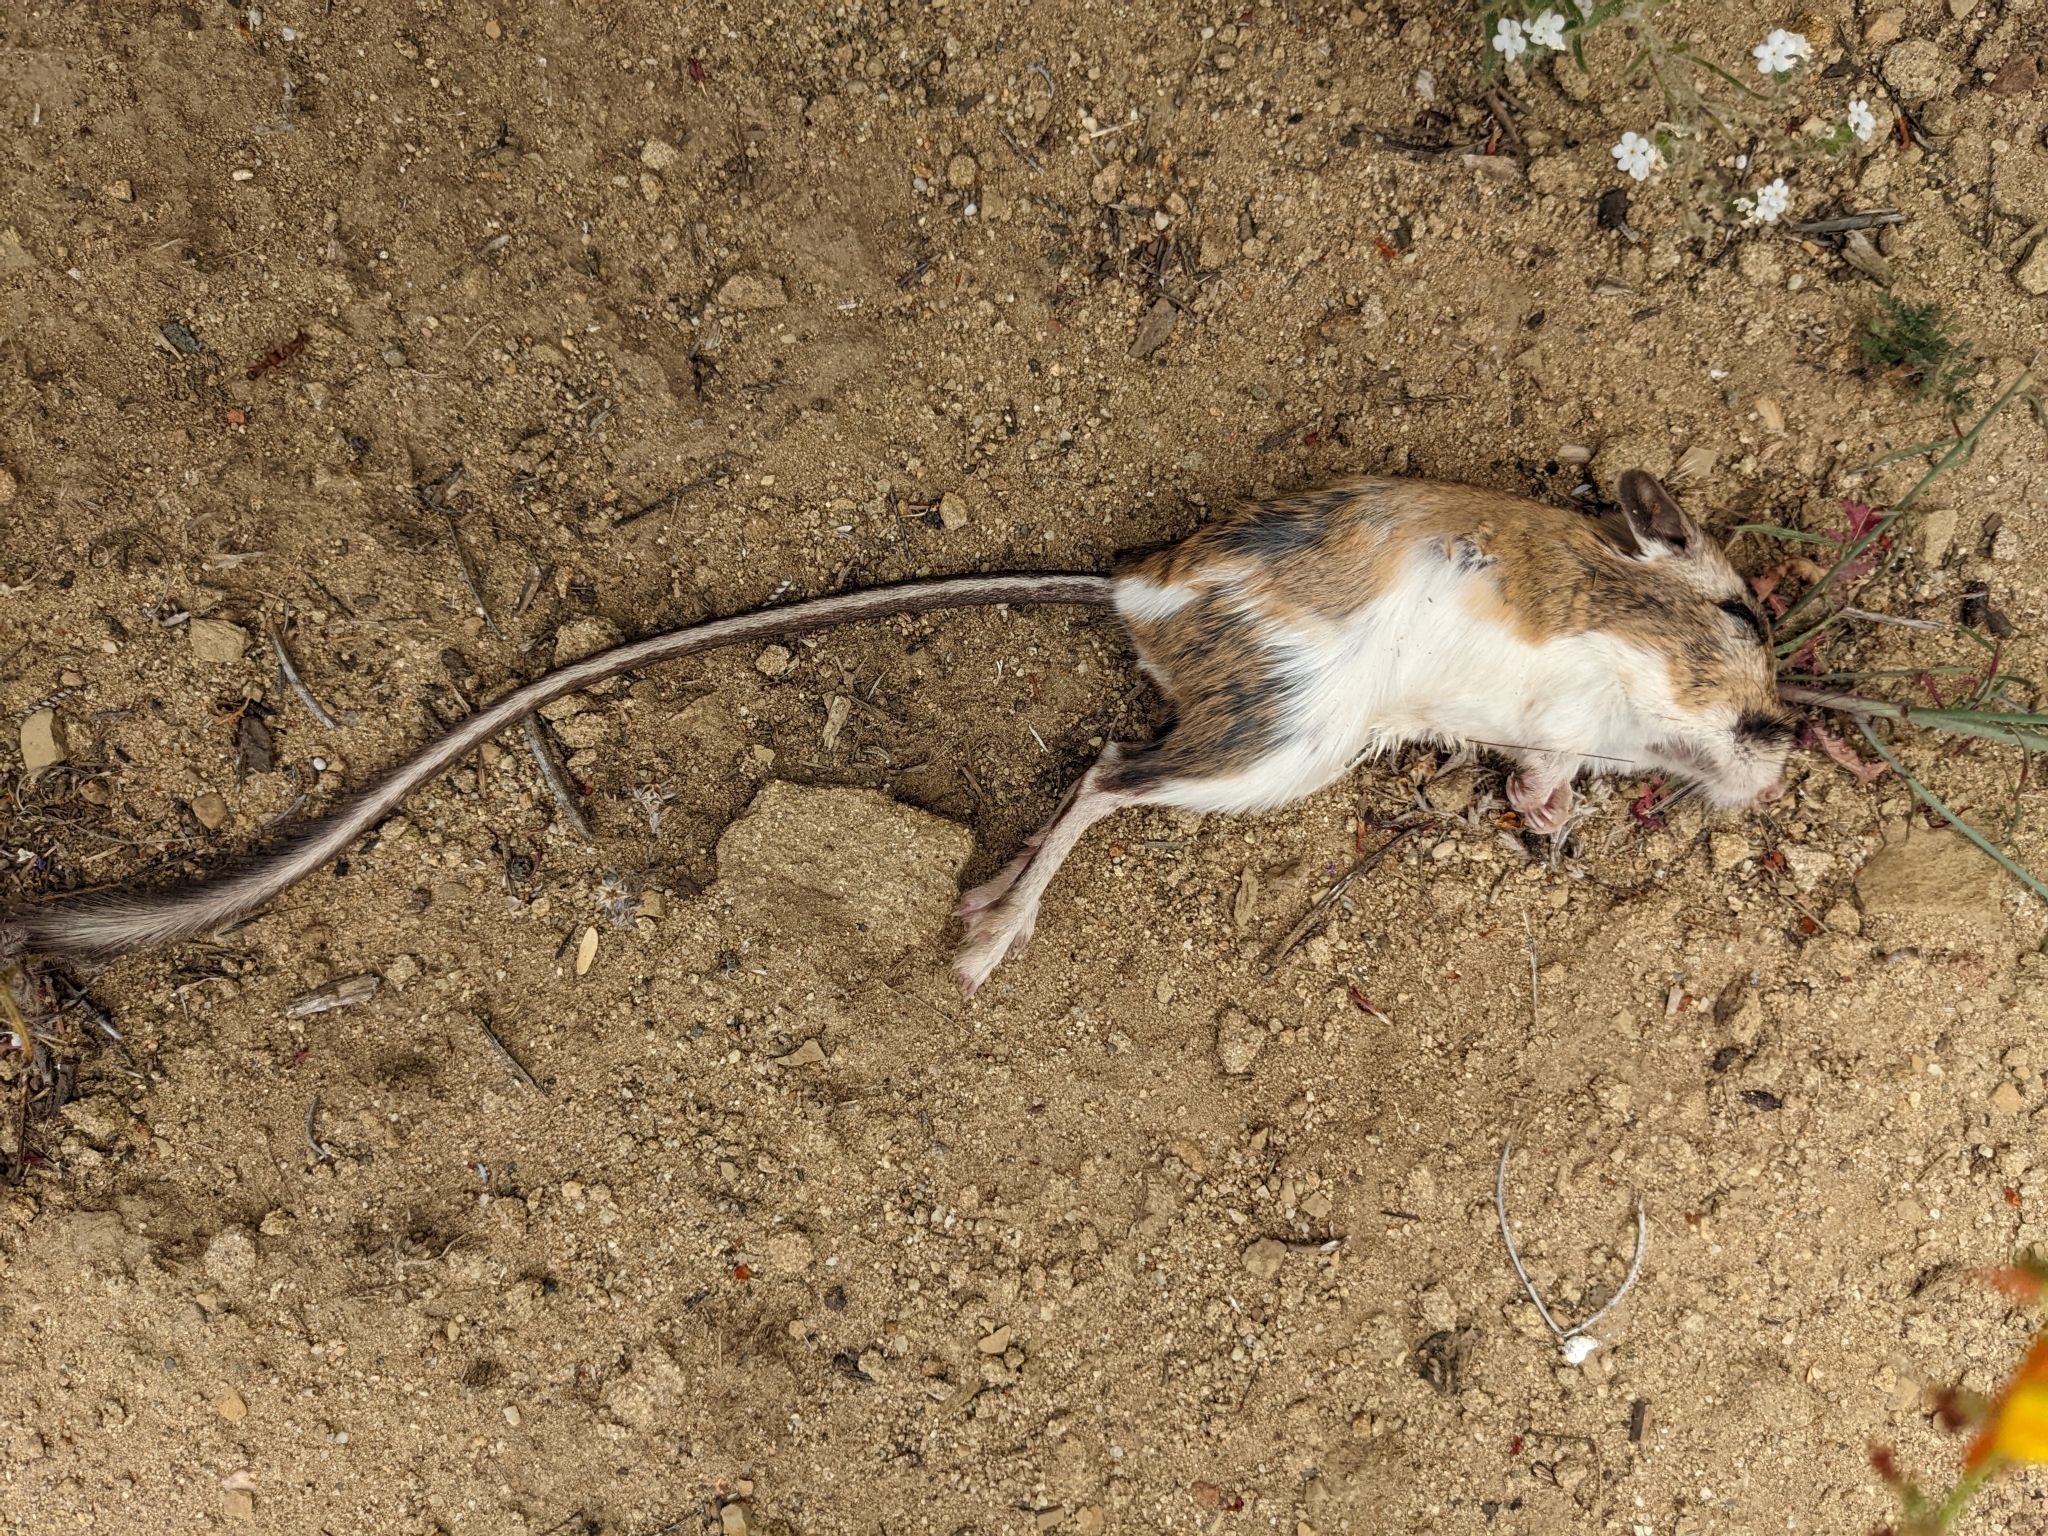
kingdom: Animalia
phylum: Chordata
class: Mammalia
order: Rodentia
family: Heteromyidae
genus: Dipodomys
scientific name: Dipodomys agilis
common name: Agile kangaroo rat
